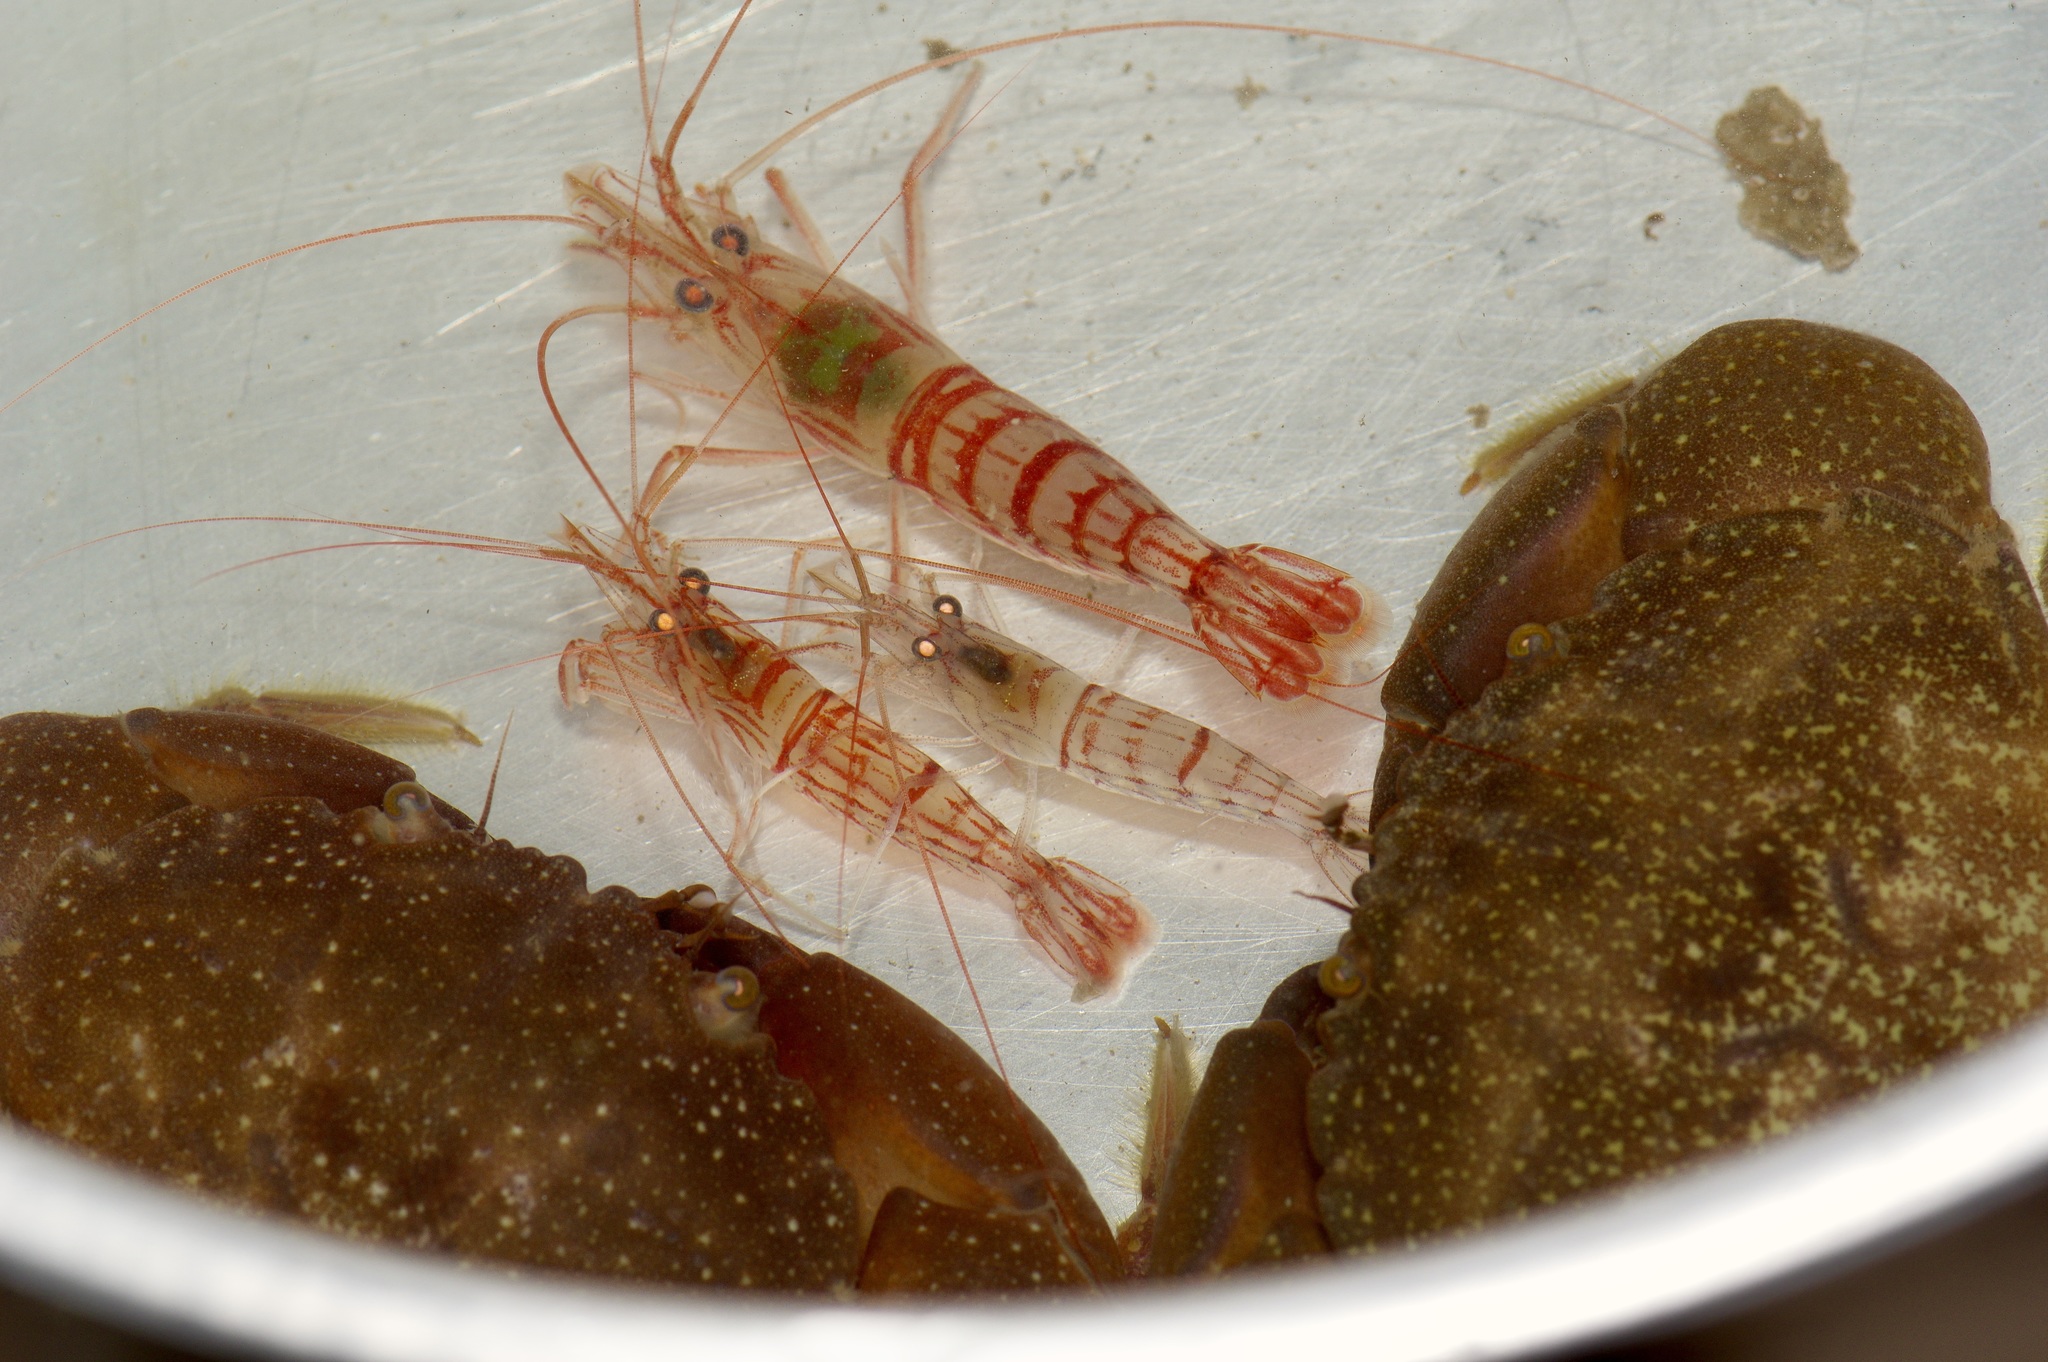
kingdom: Animalia
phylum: Arthropoda
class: Malacostraca
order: Decapoda
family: Lysmatidae
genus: Lysmata
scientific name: Lysmata wurdemanni
